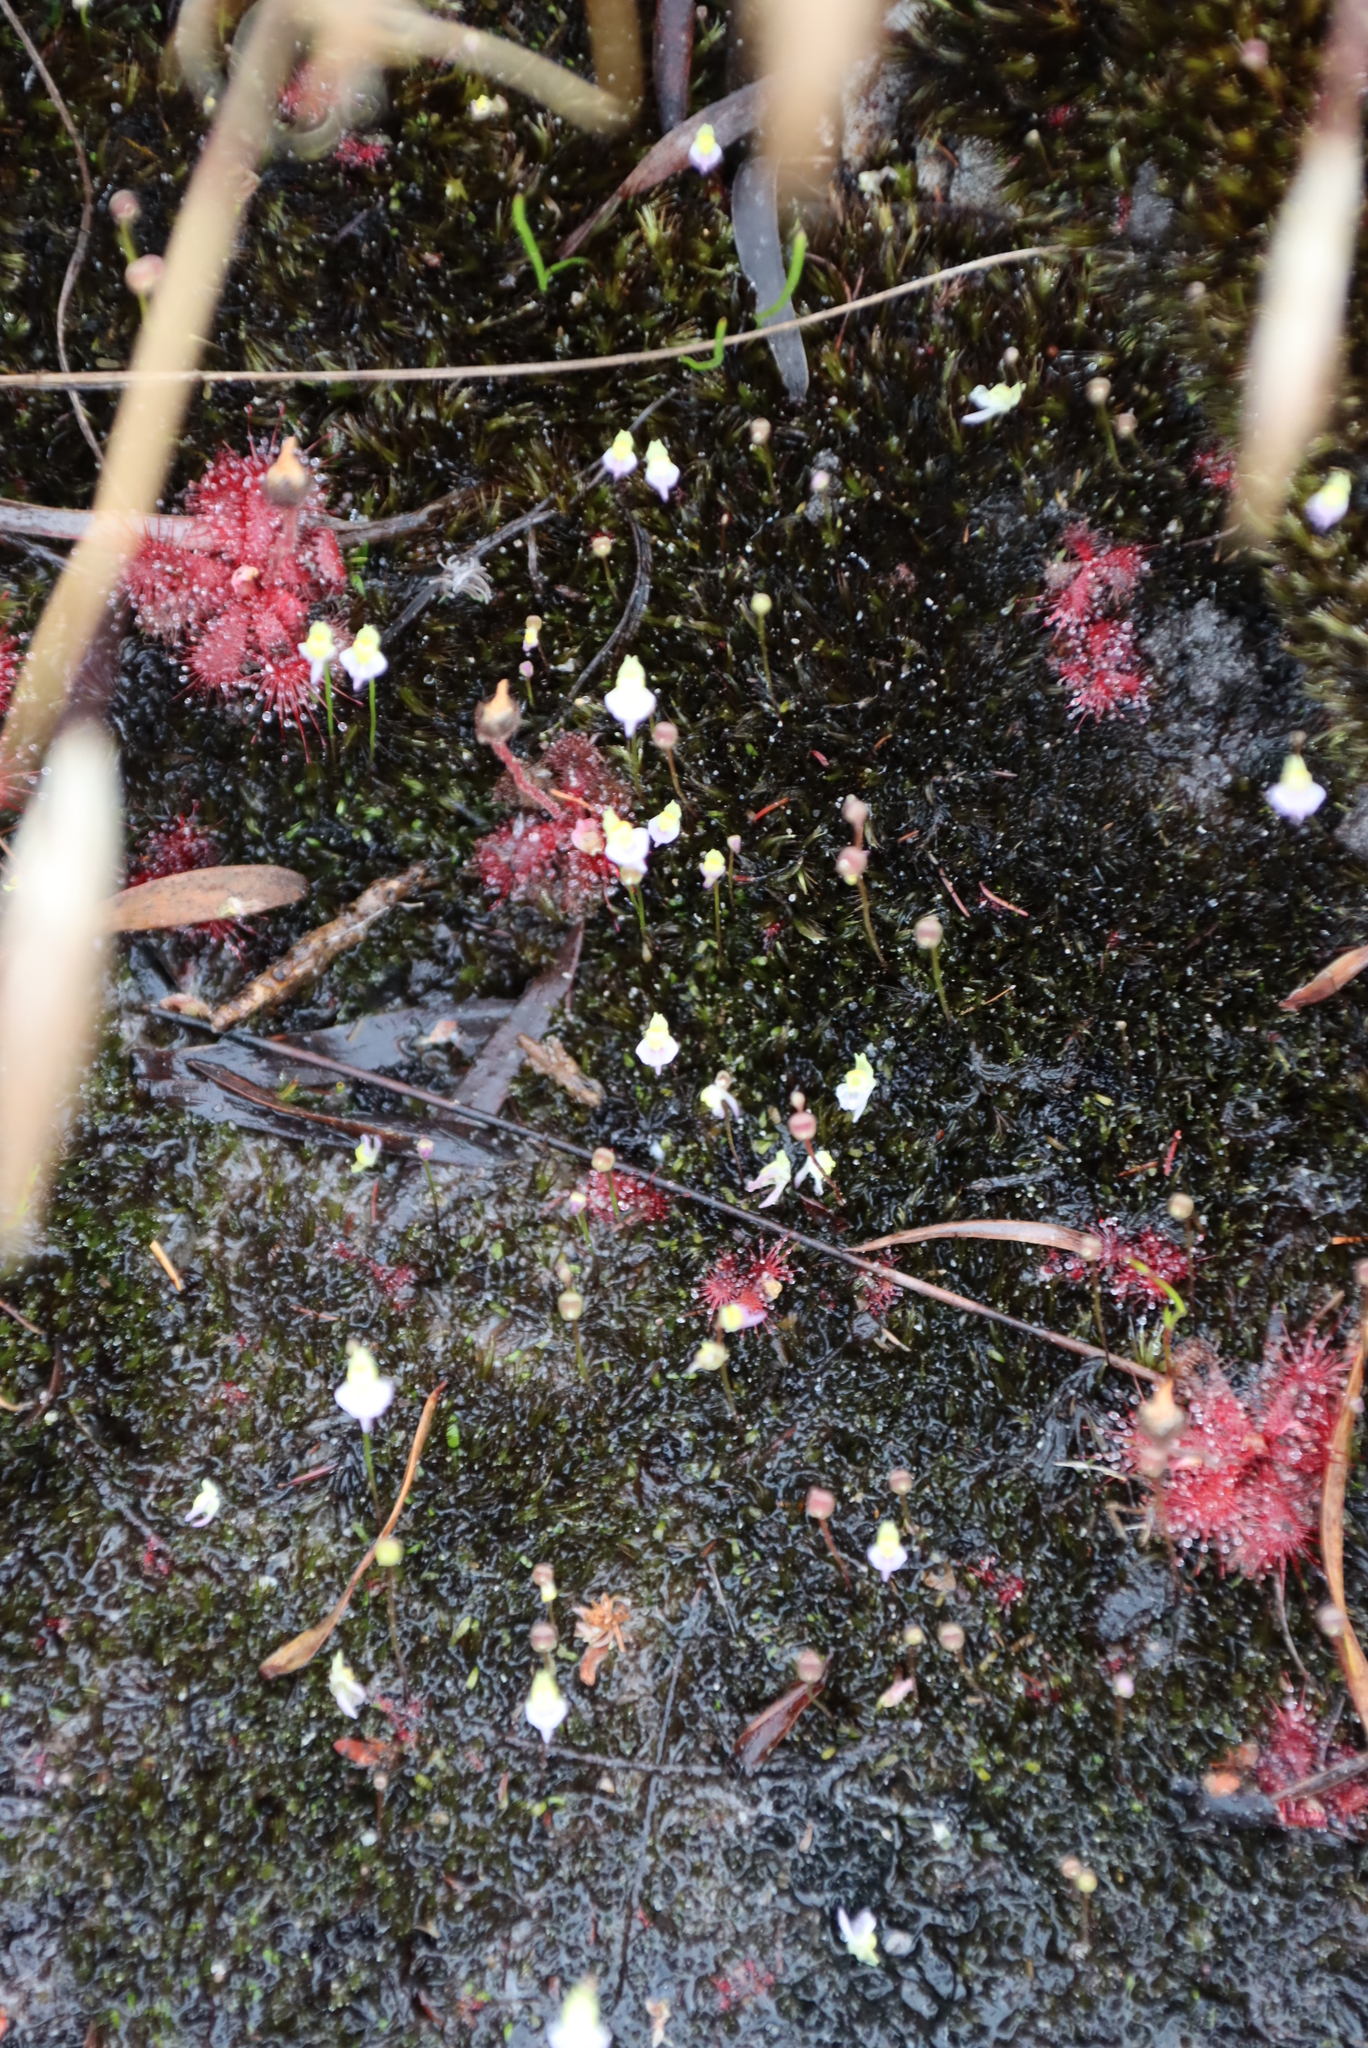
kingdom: Plantae
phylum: Tracheophyta
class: Magnoliopsida
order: Lamiales
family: Lentibulariaceae
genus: Utricularia
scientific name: Utricularia bisquamata
